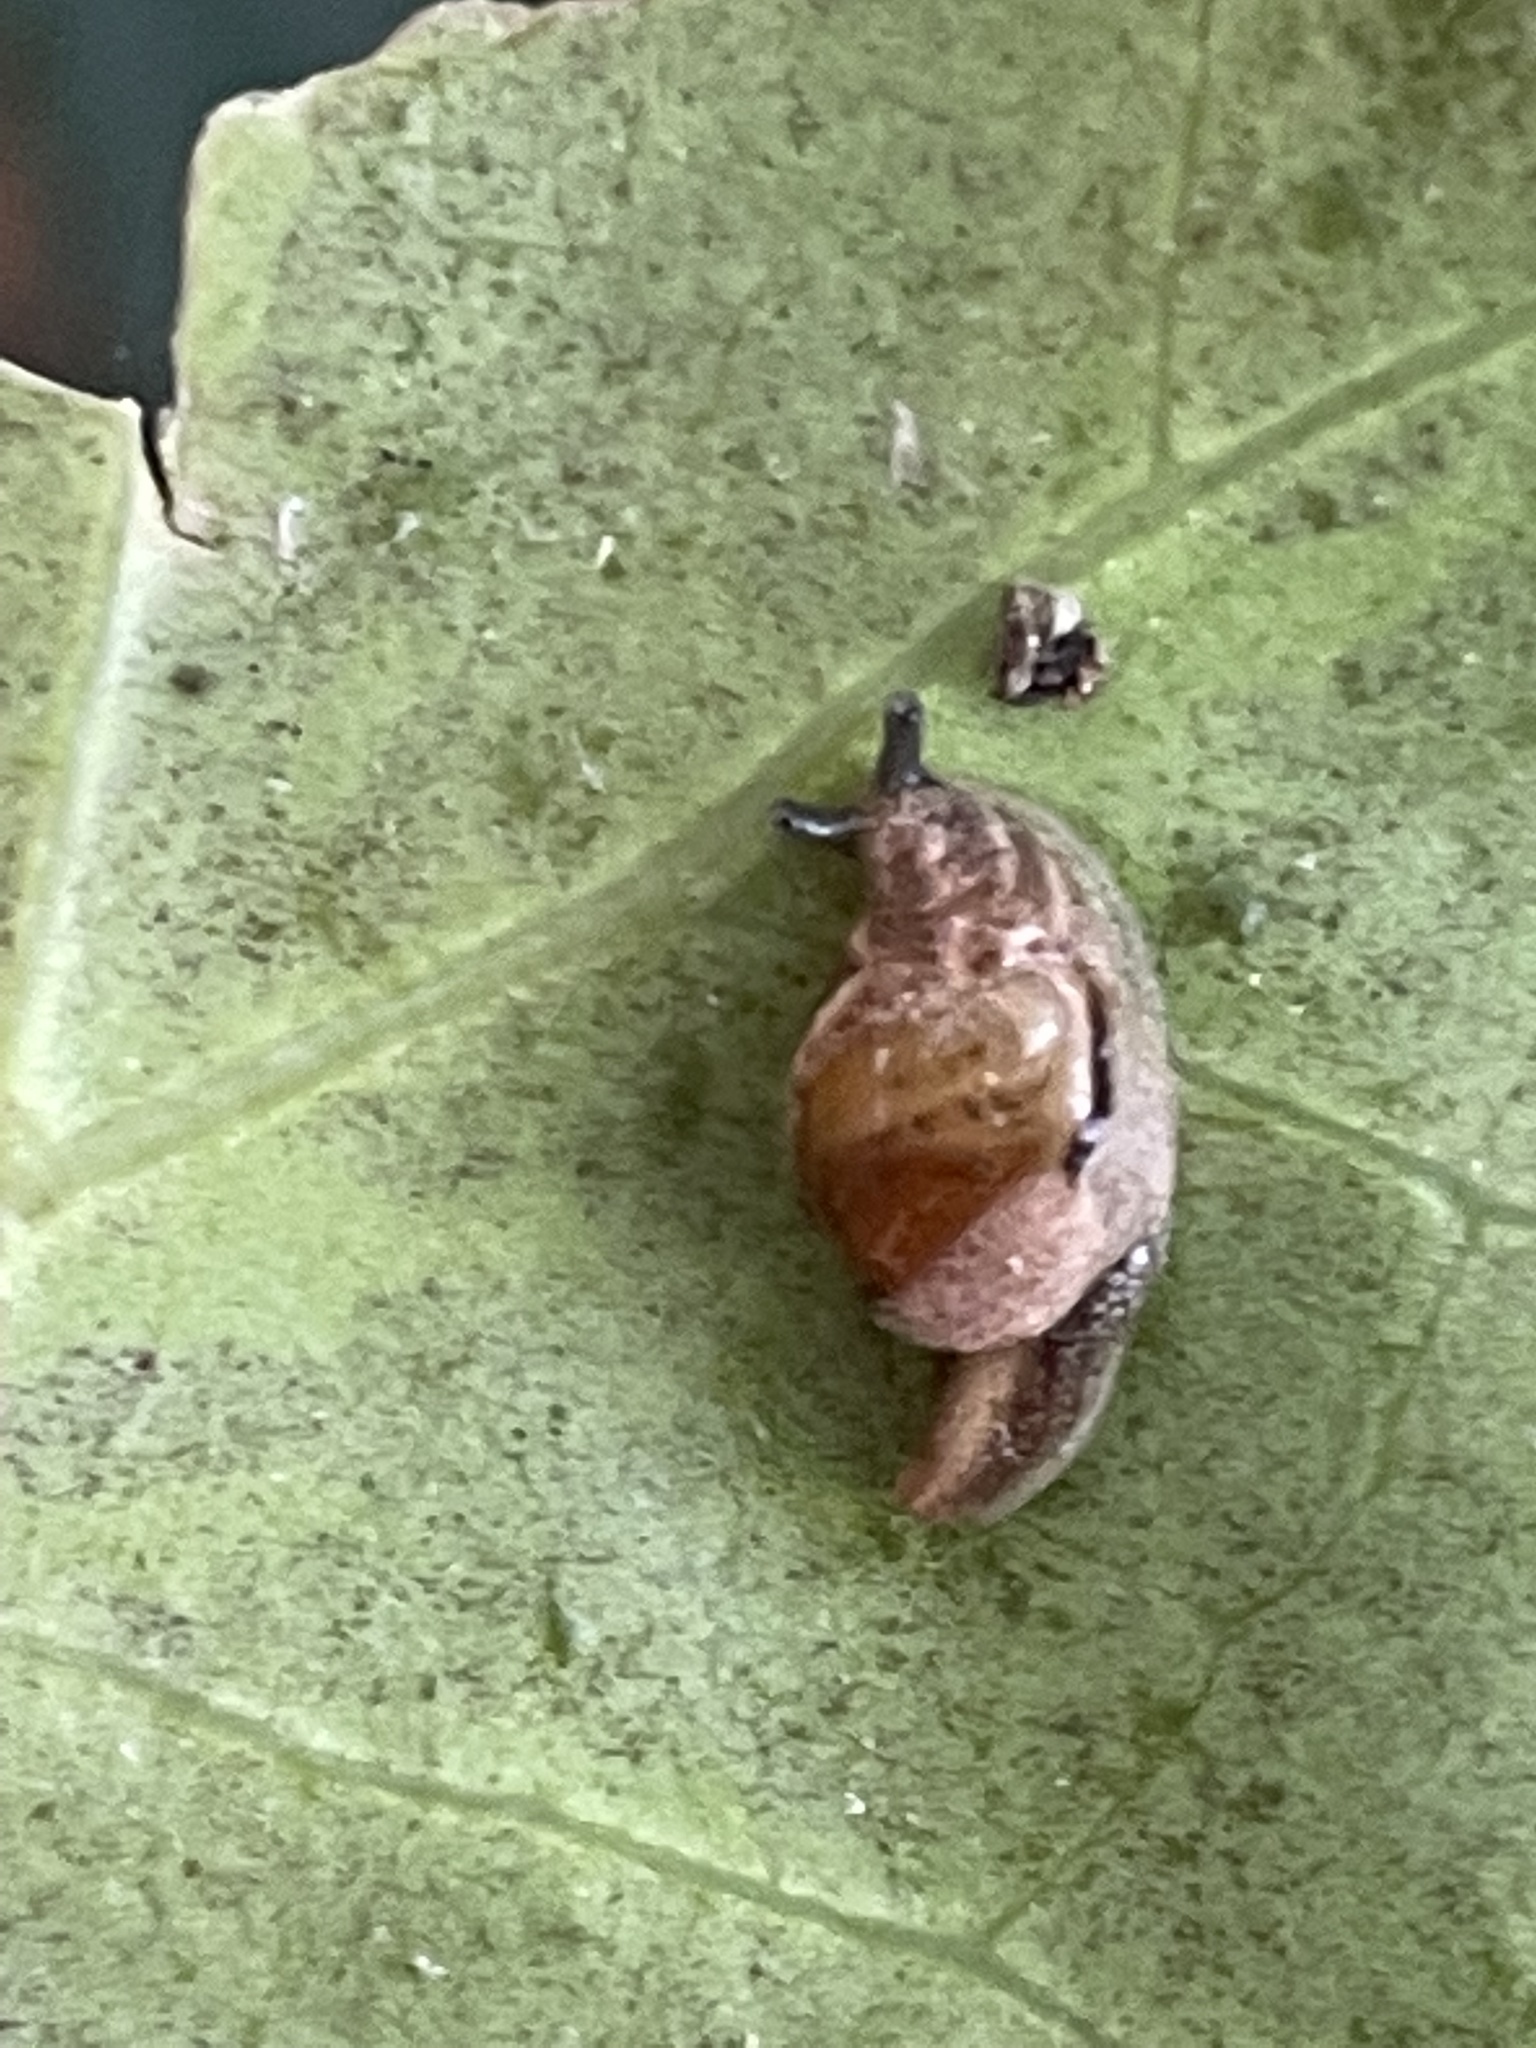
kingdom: Animalia
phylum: Mollusca
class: Gastropoda
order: Stylommatophora
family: Helicarionidae
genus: Ubiquitarion
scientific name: Ubiquitarion iridis
